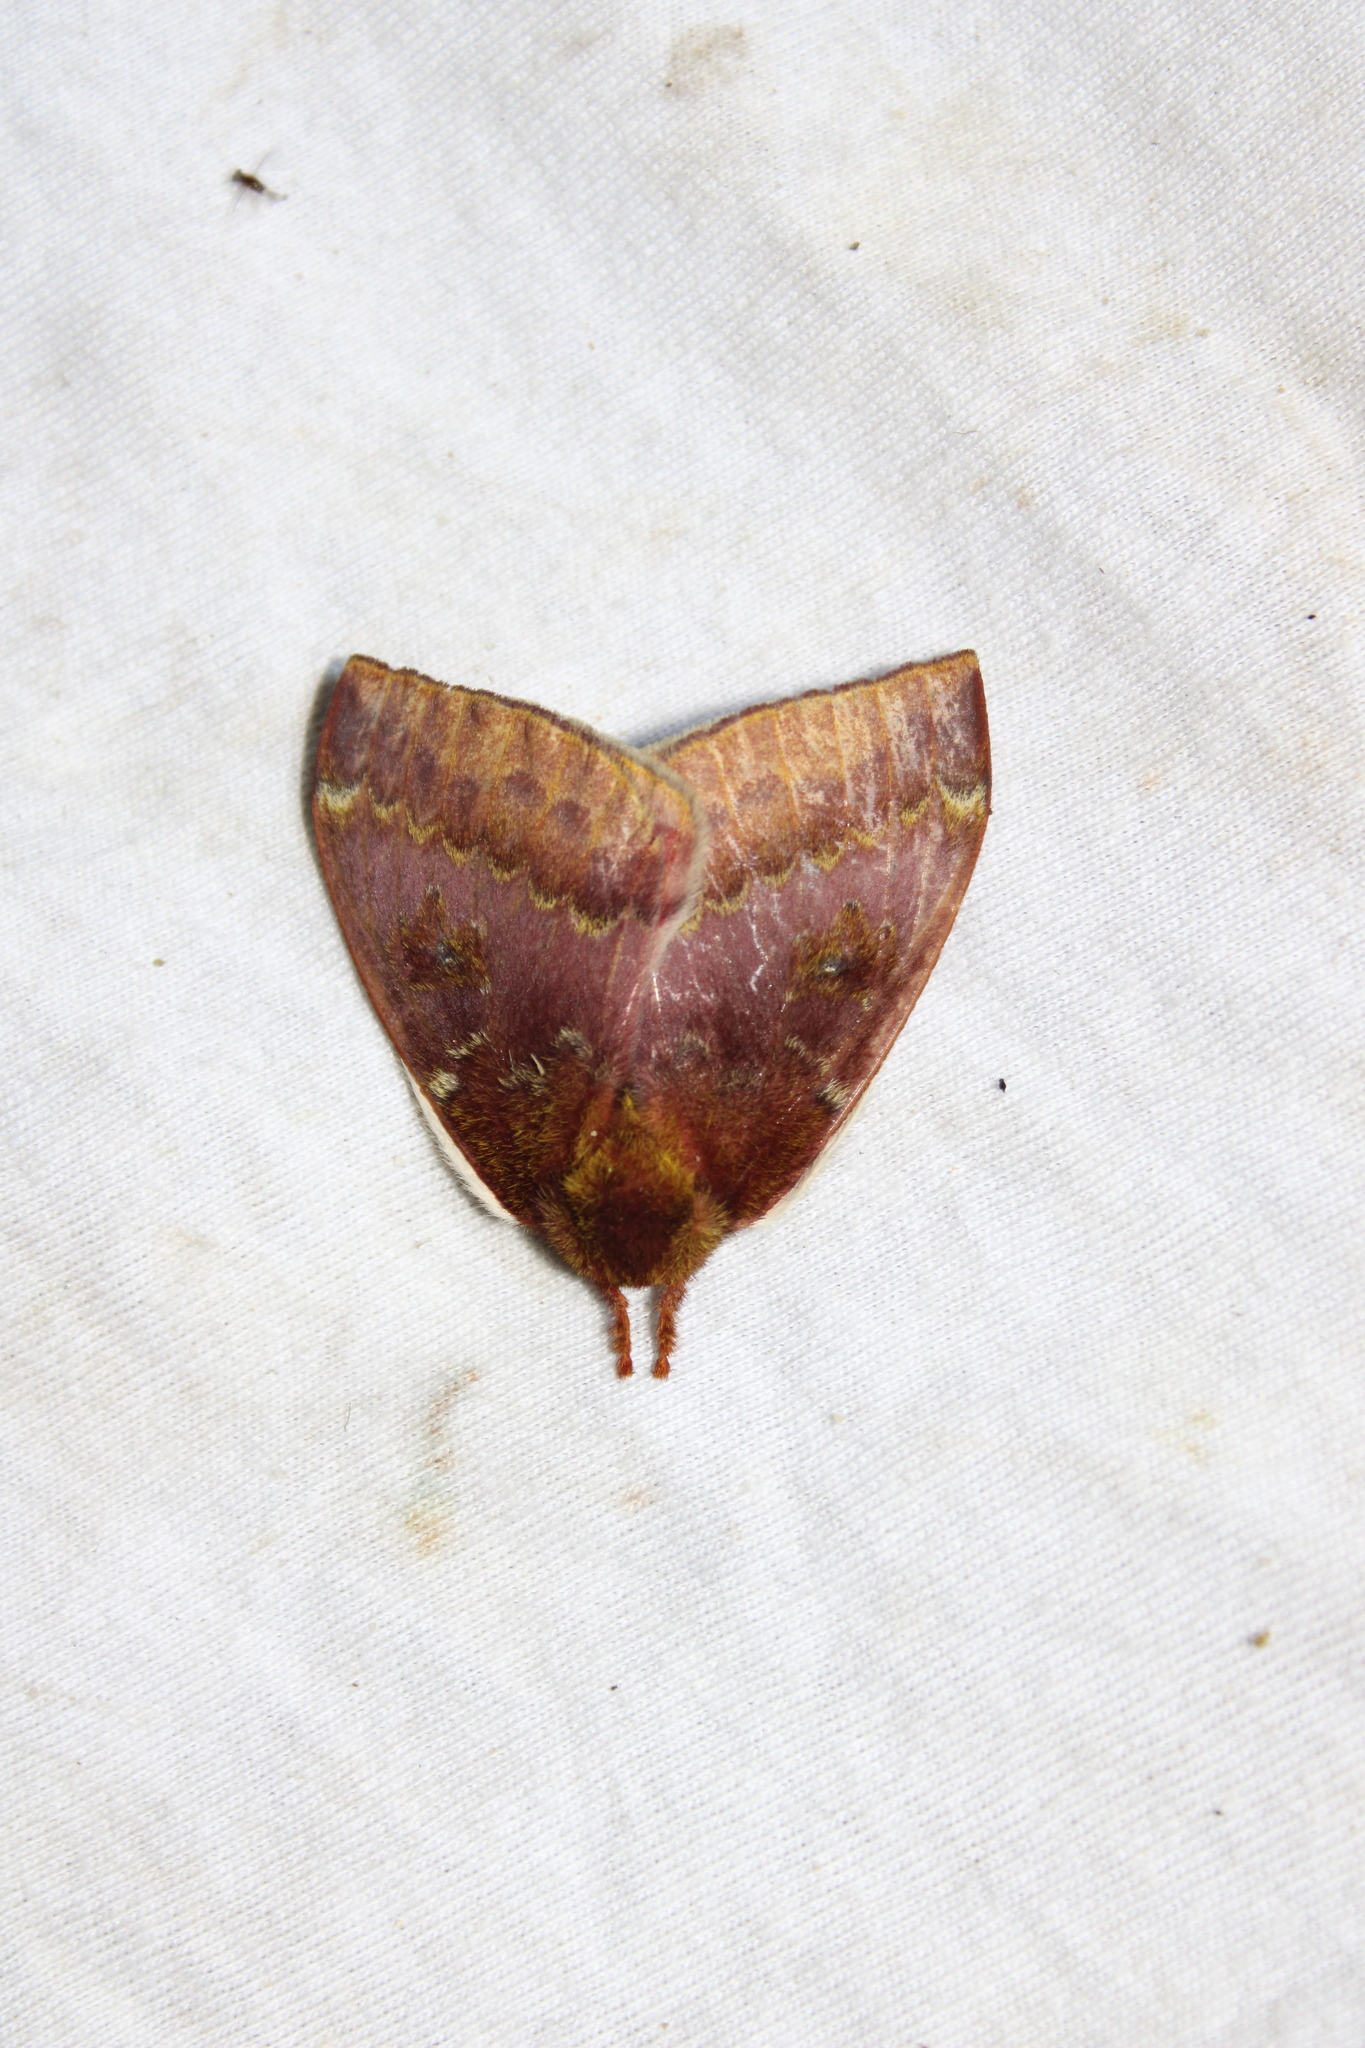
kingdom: Animalia
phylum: Arthropoda
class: Insecta
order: Lepidoptera
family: Saturniidae
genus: Automeris
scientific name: Automeris io
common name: Io moth
